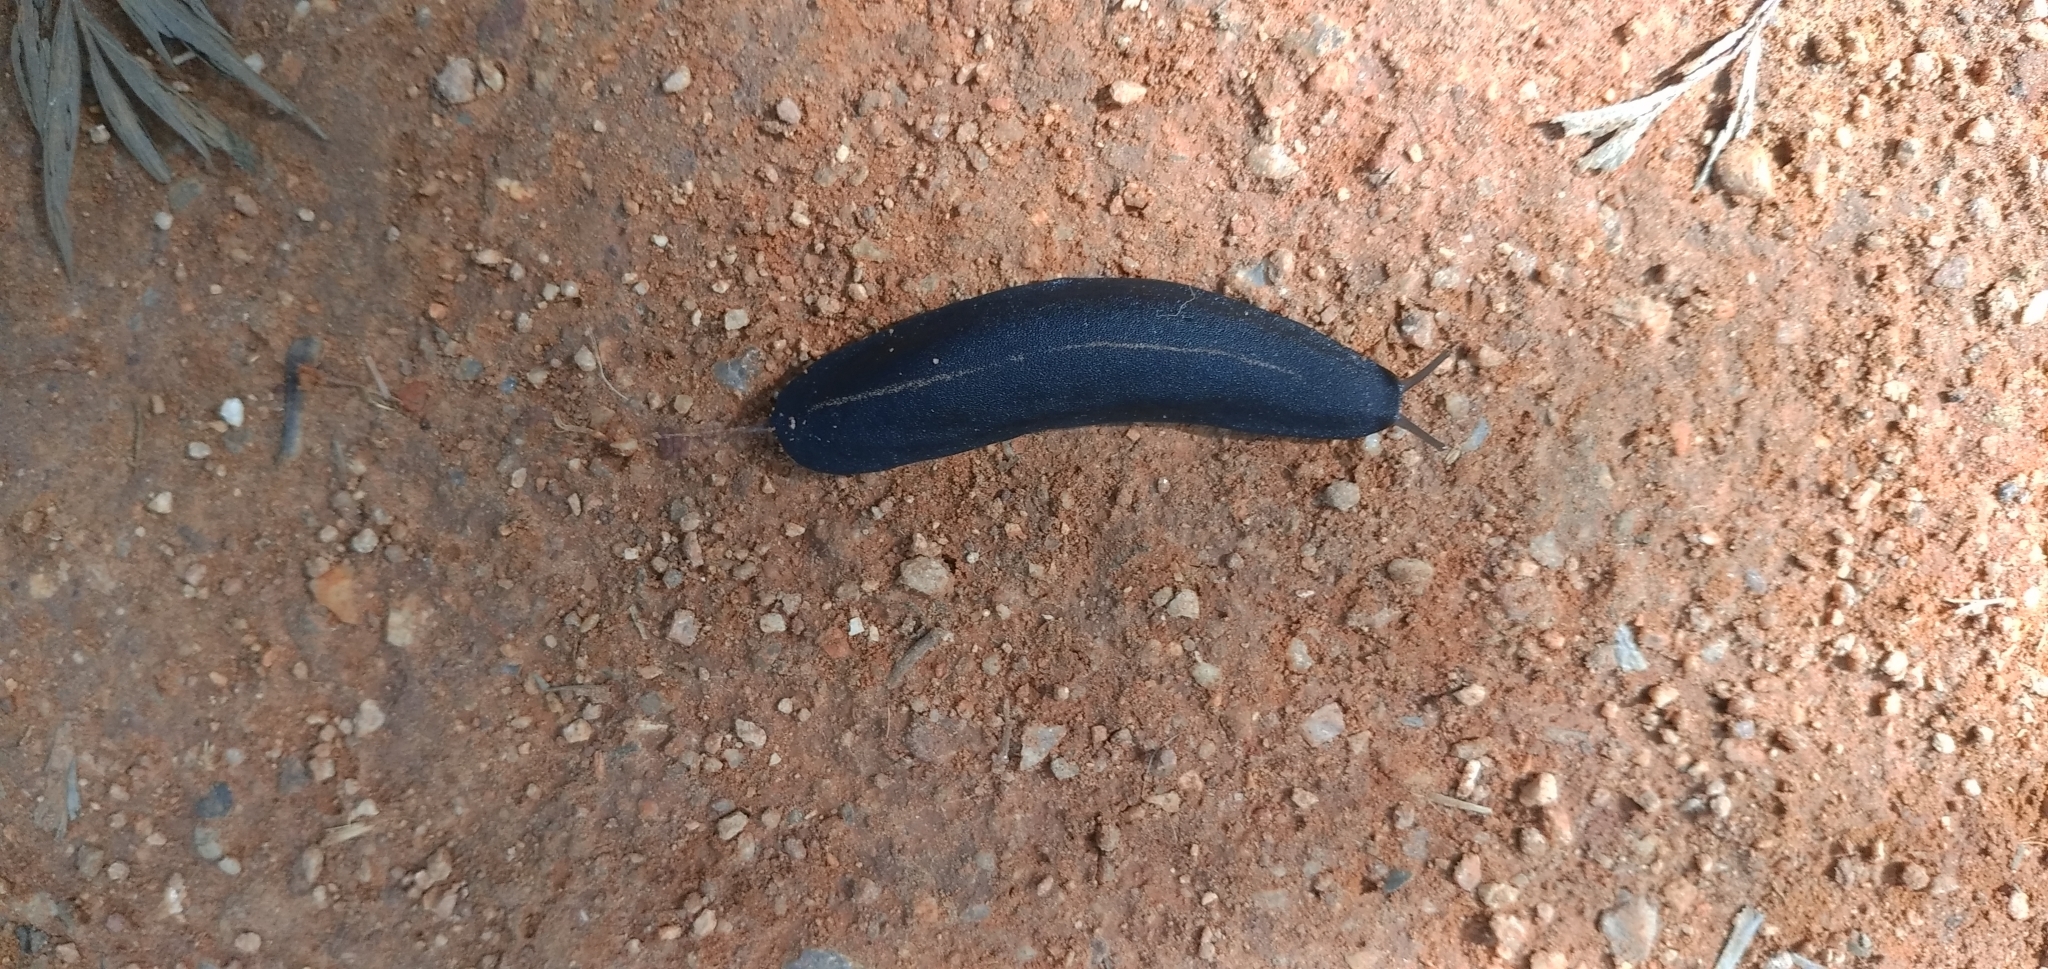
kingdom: Animalia
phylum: Mollusca
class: Gastropoda
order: Systellommatophora
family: Veronicellidae
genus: Laevicaulis
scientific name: Laevicaulis alte
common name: Tropical leatherleaf
